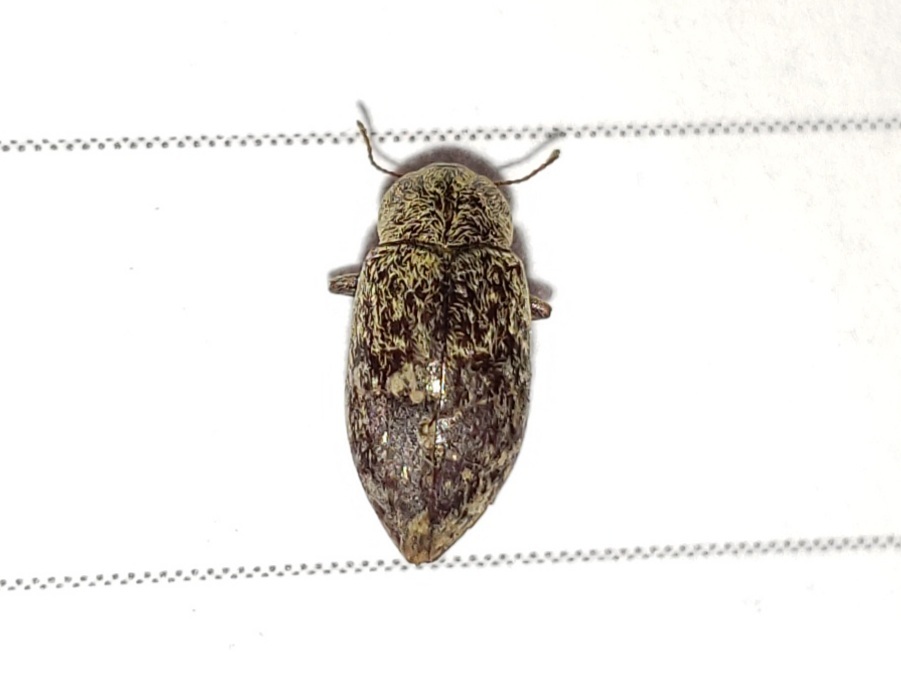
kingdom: Animalia
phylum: Arthropoda
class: Insecta
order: Coleoptera
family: Tenebrionidae
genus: Epitragodes
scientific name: Epitragodes tomentosus
